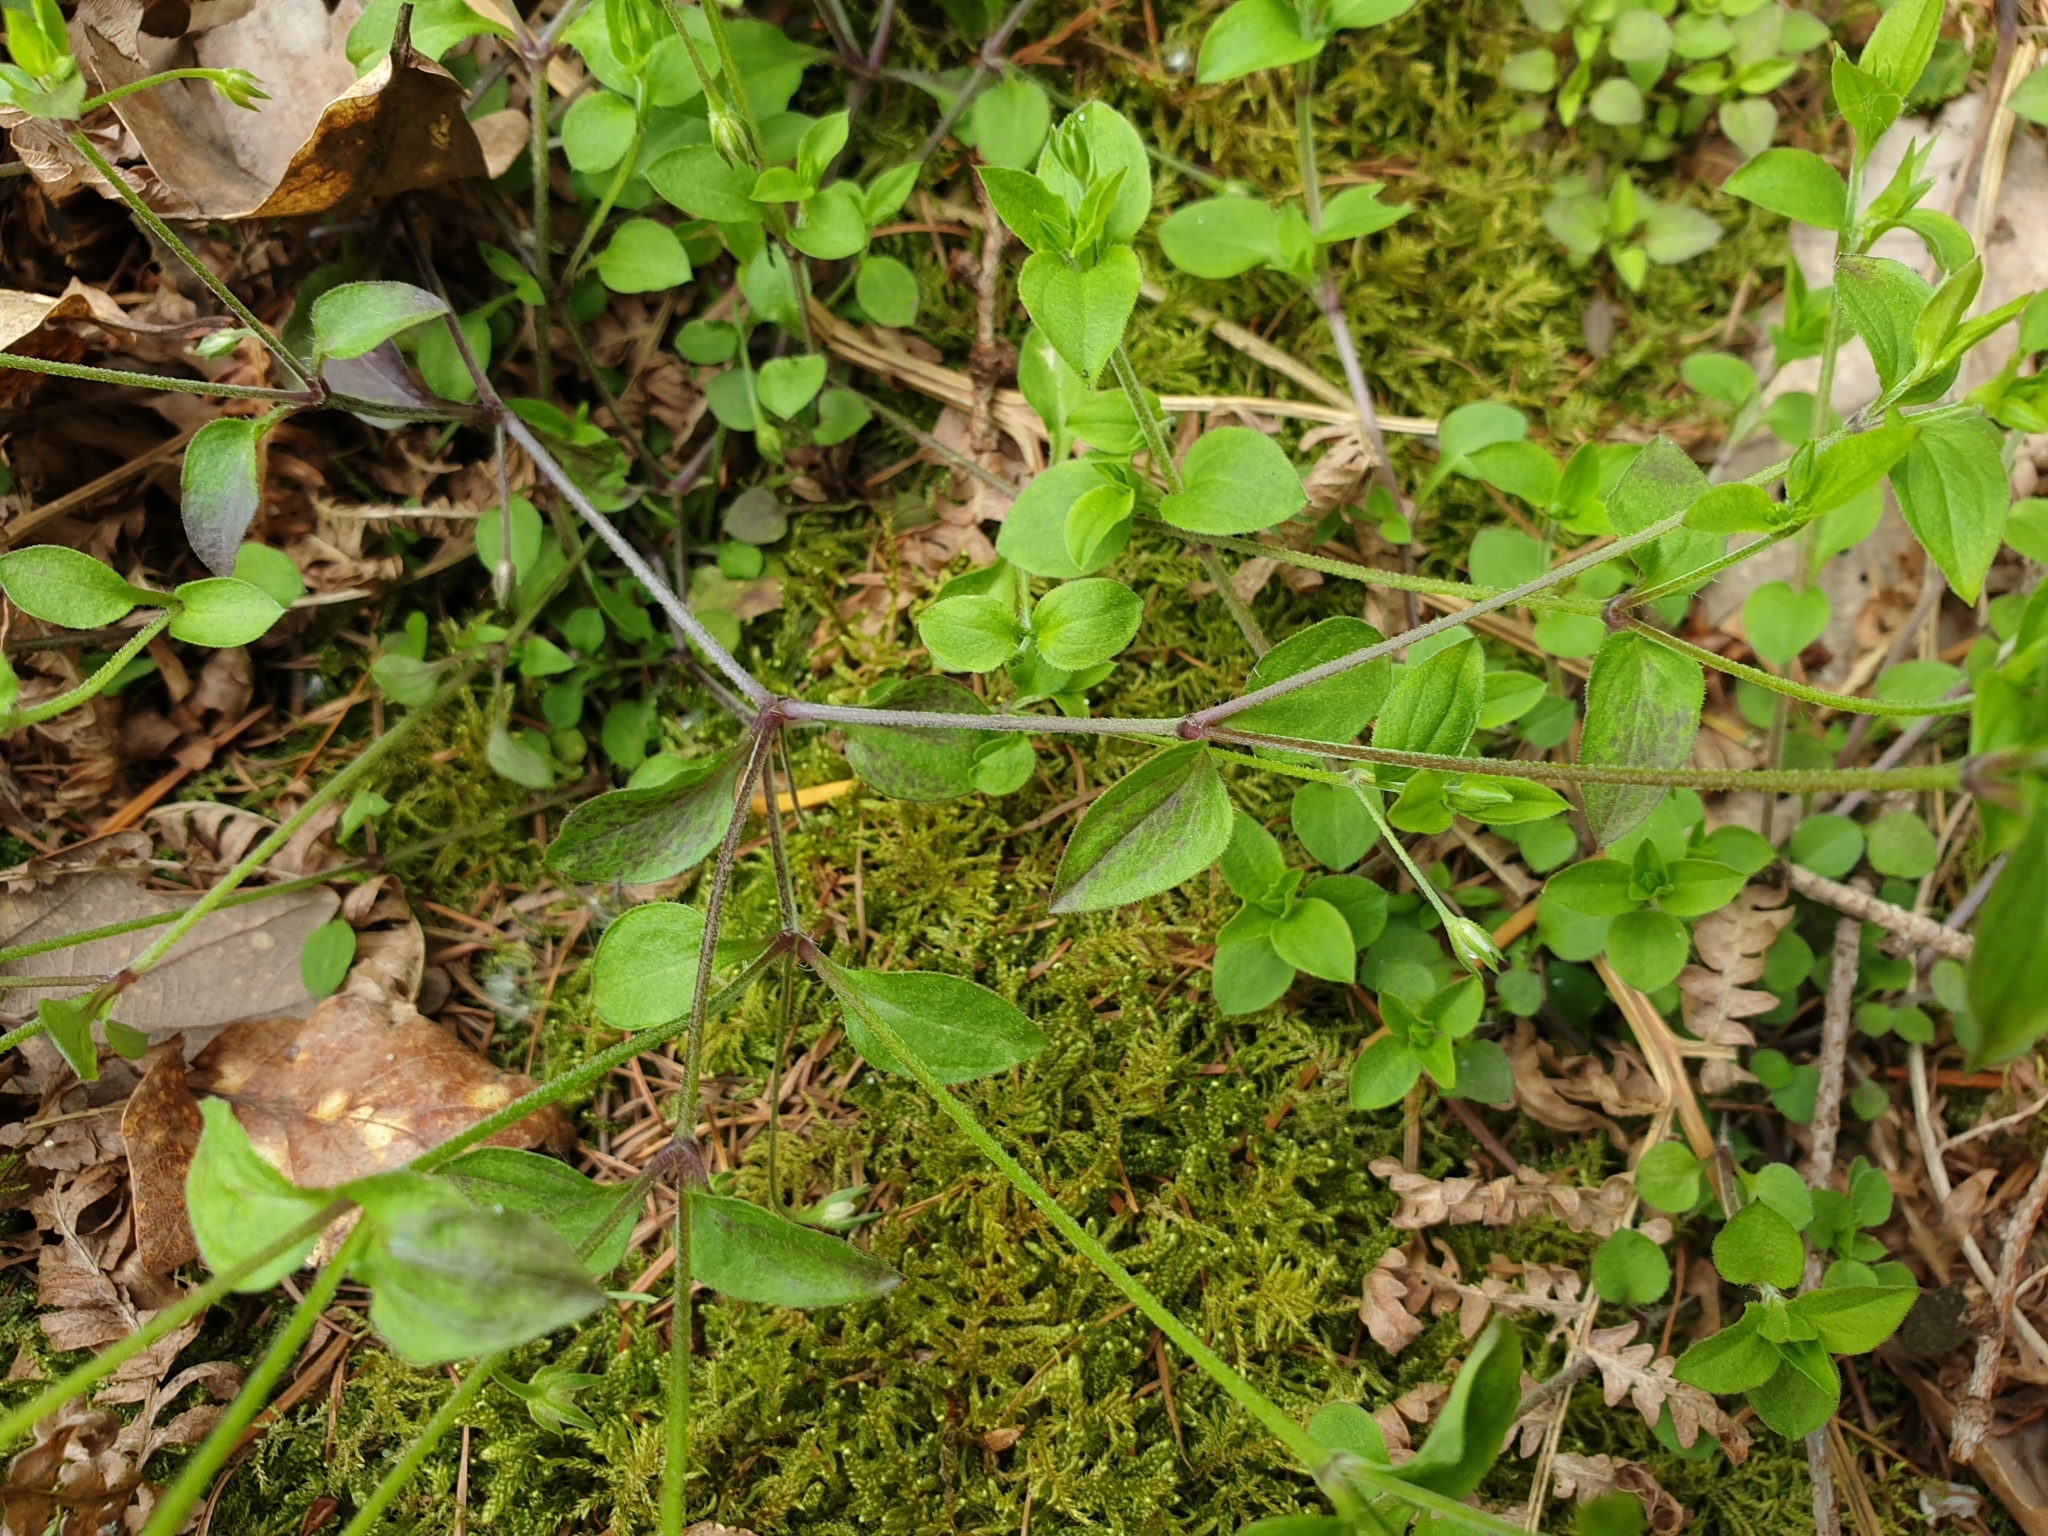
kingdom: Plantae
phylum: Tracheophyta
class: Magnoliopsida
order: Caryophyllales
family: Caryophyllaceae
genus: Moehringia
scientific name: Moehringia trinervia
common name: Three-nerved sandwort
